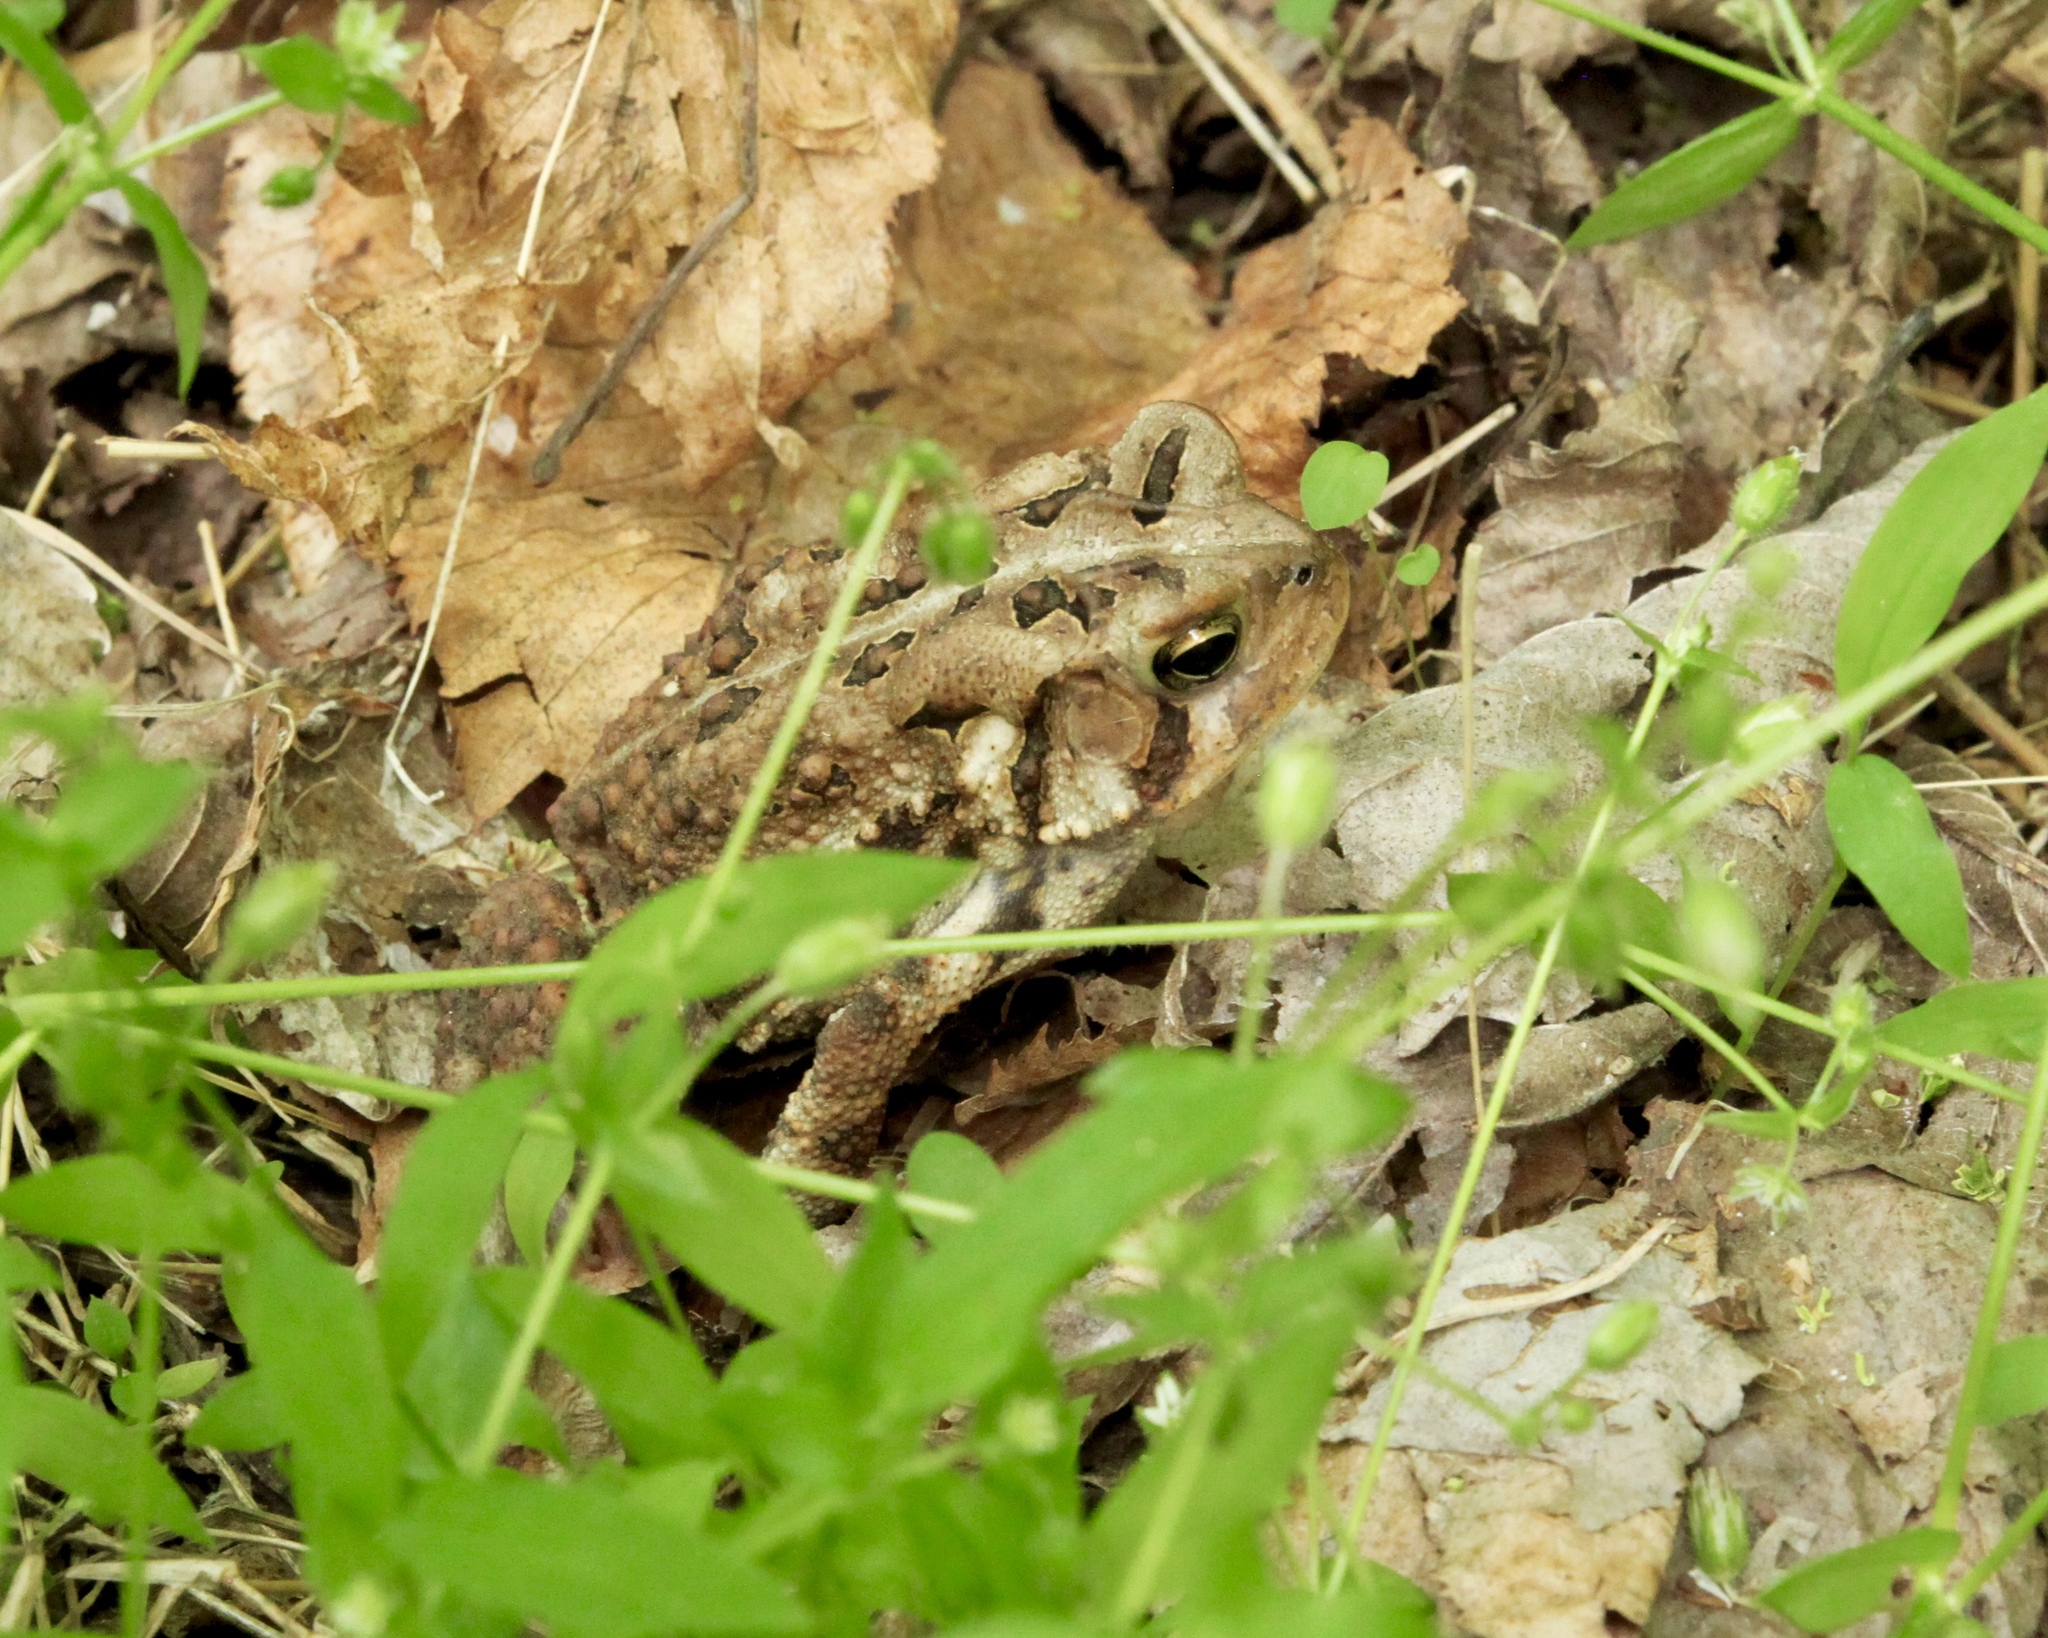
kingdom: Animalia
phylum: Chordata
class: Amphibia
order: Anura
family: Bufonidae
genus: Anaxyrus
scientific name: Anaxyrus americanus
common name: American toad
